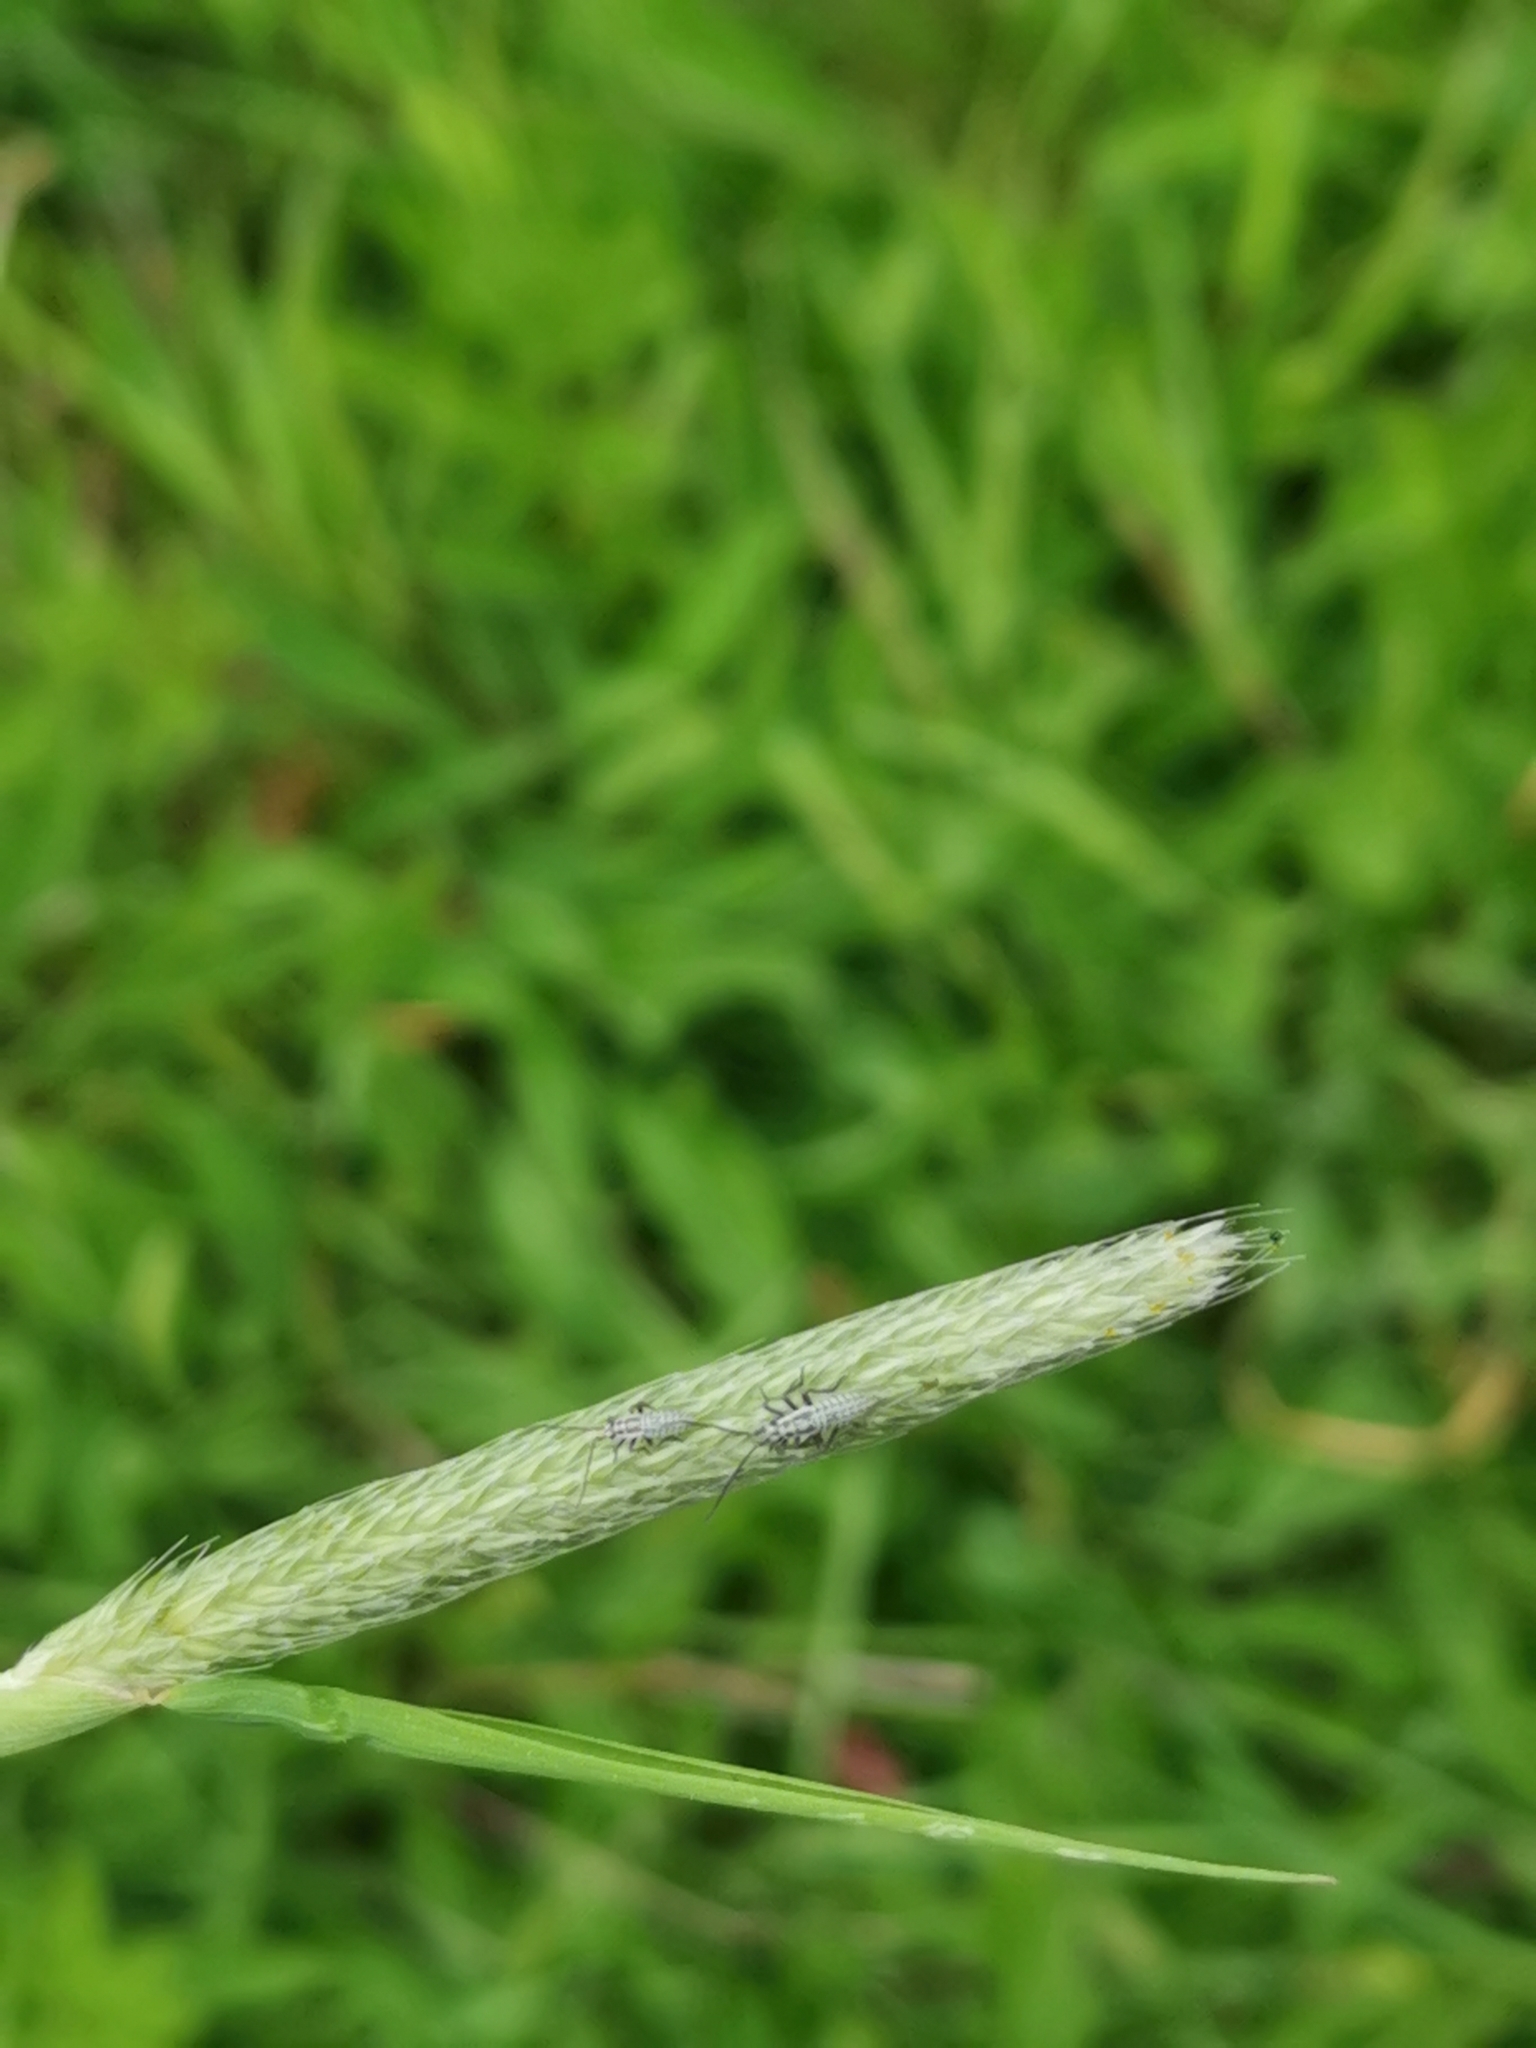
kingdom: Animalia
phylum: Arthropoda
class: Insecta
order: Hemiptera
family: Miridae
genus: Leptopterna
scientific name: Leptopterna dolabrata
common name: Meadow plant bug
